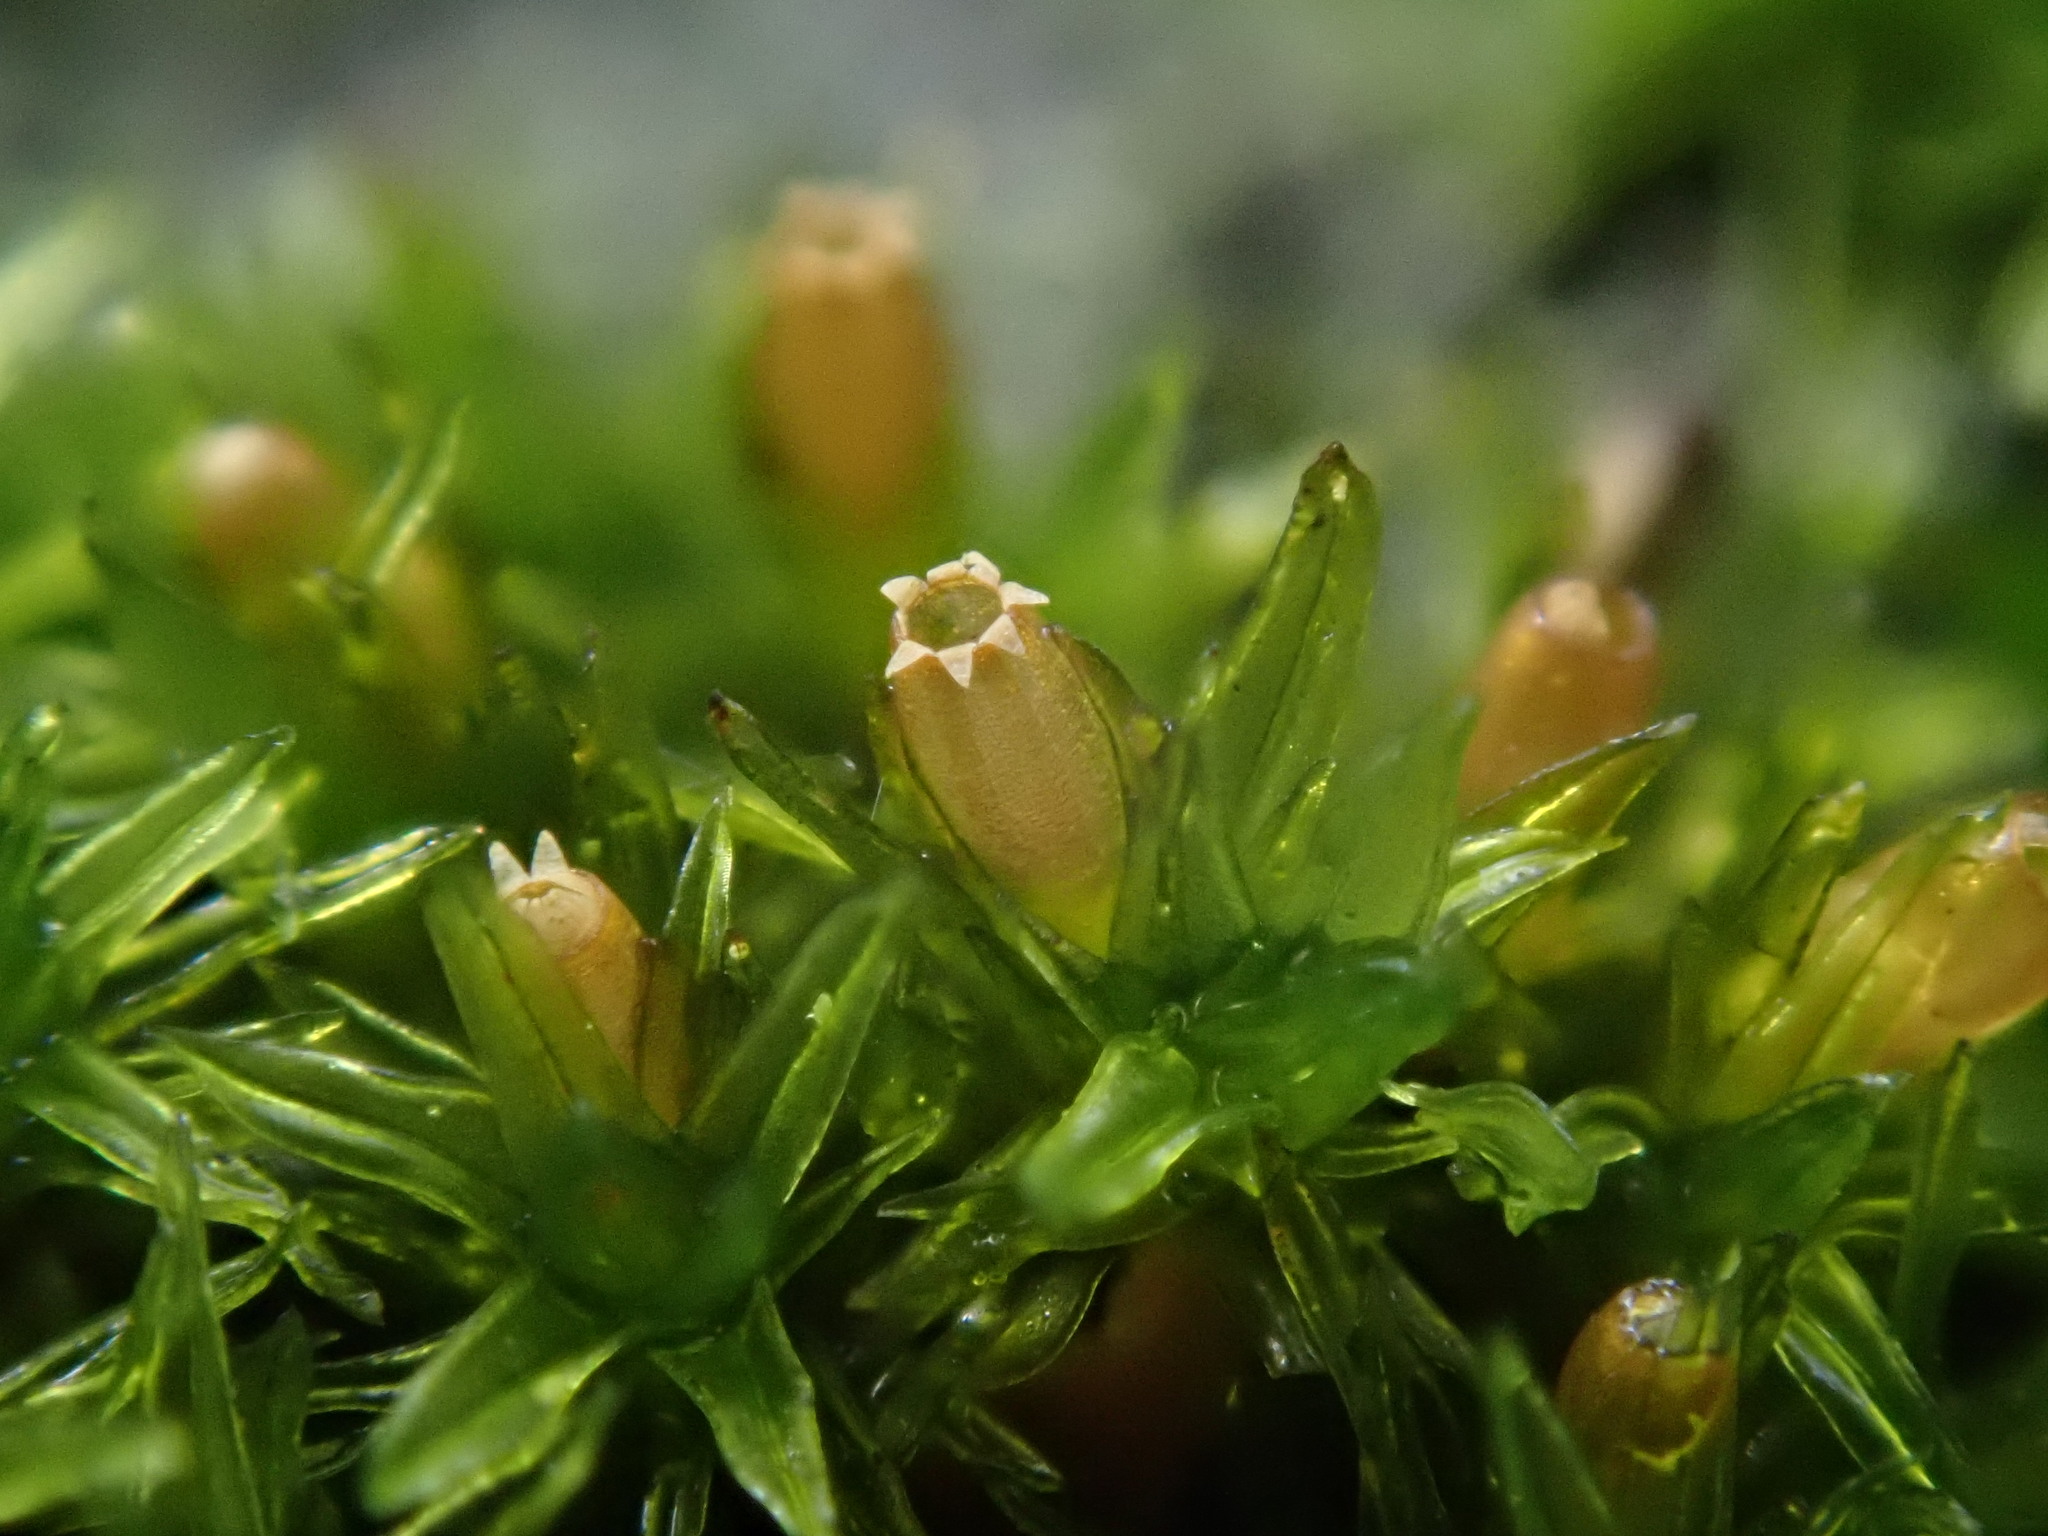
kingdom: Plantae
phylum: Bryophyta
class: Bryopsida
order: Orthotrichales
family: Orthotrichaceae
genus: Lewinskya
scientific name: Lewinskya affinis
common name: Wood bristle-moss
